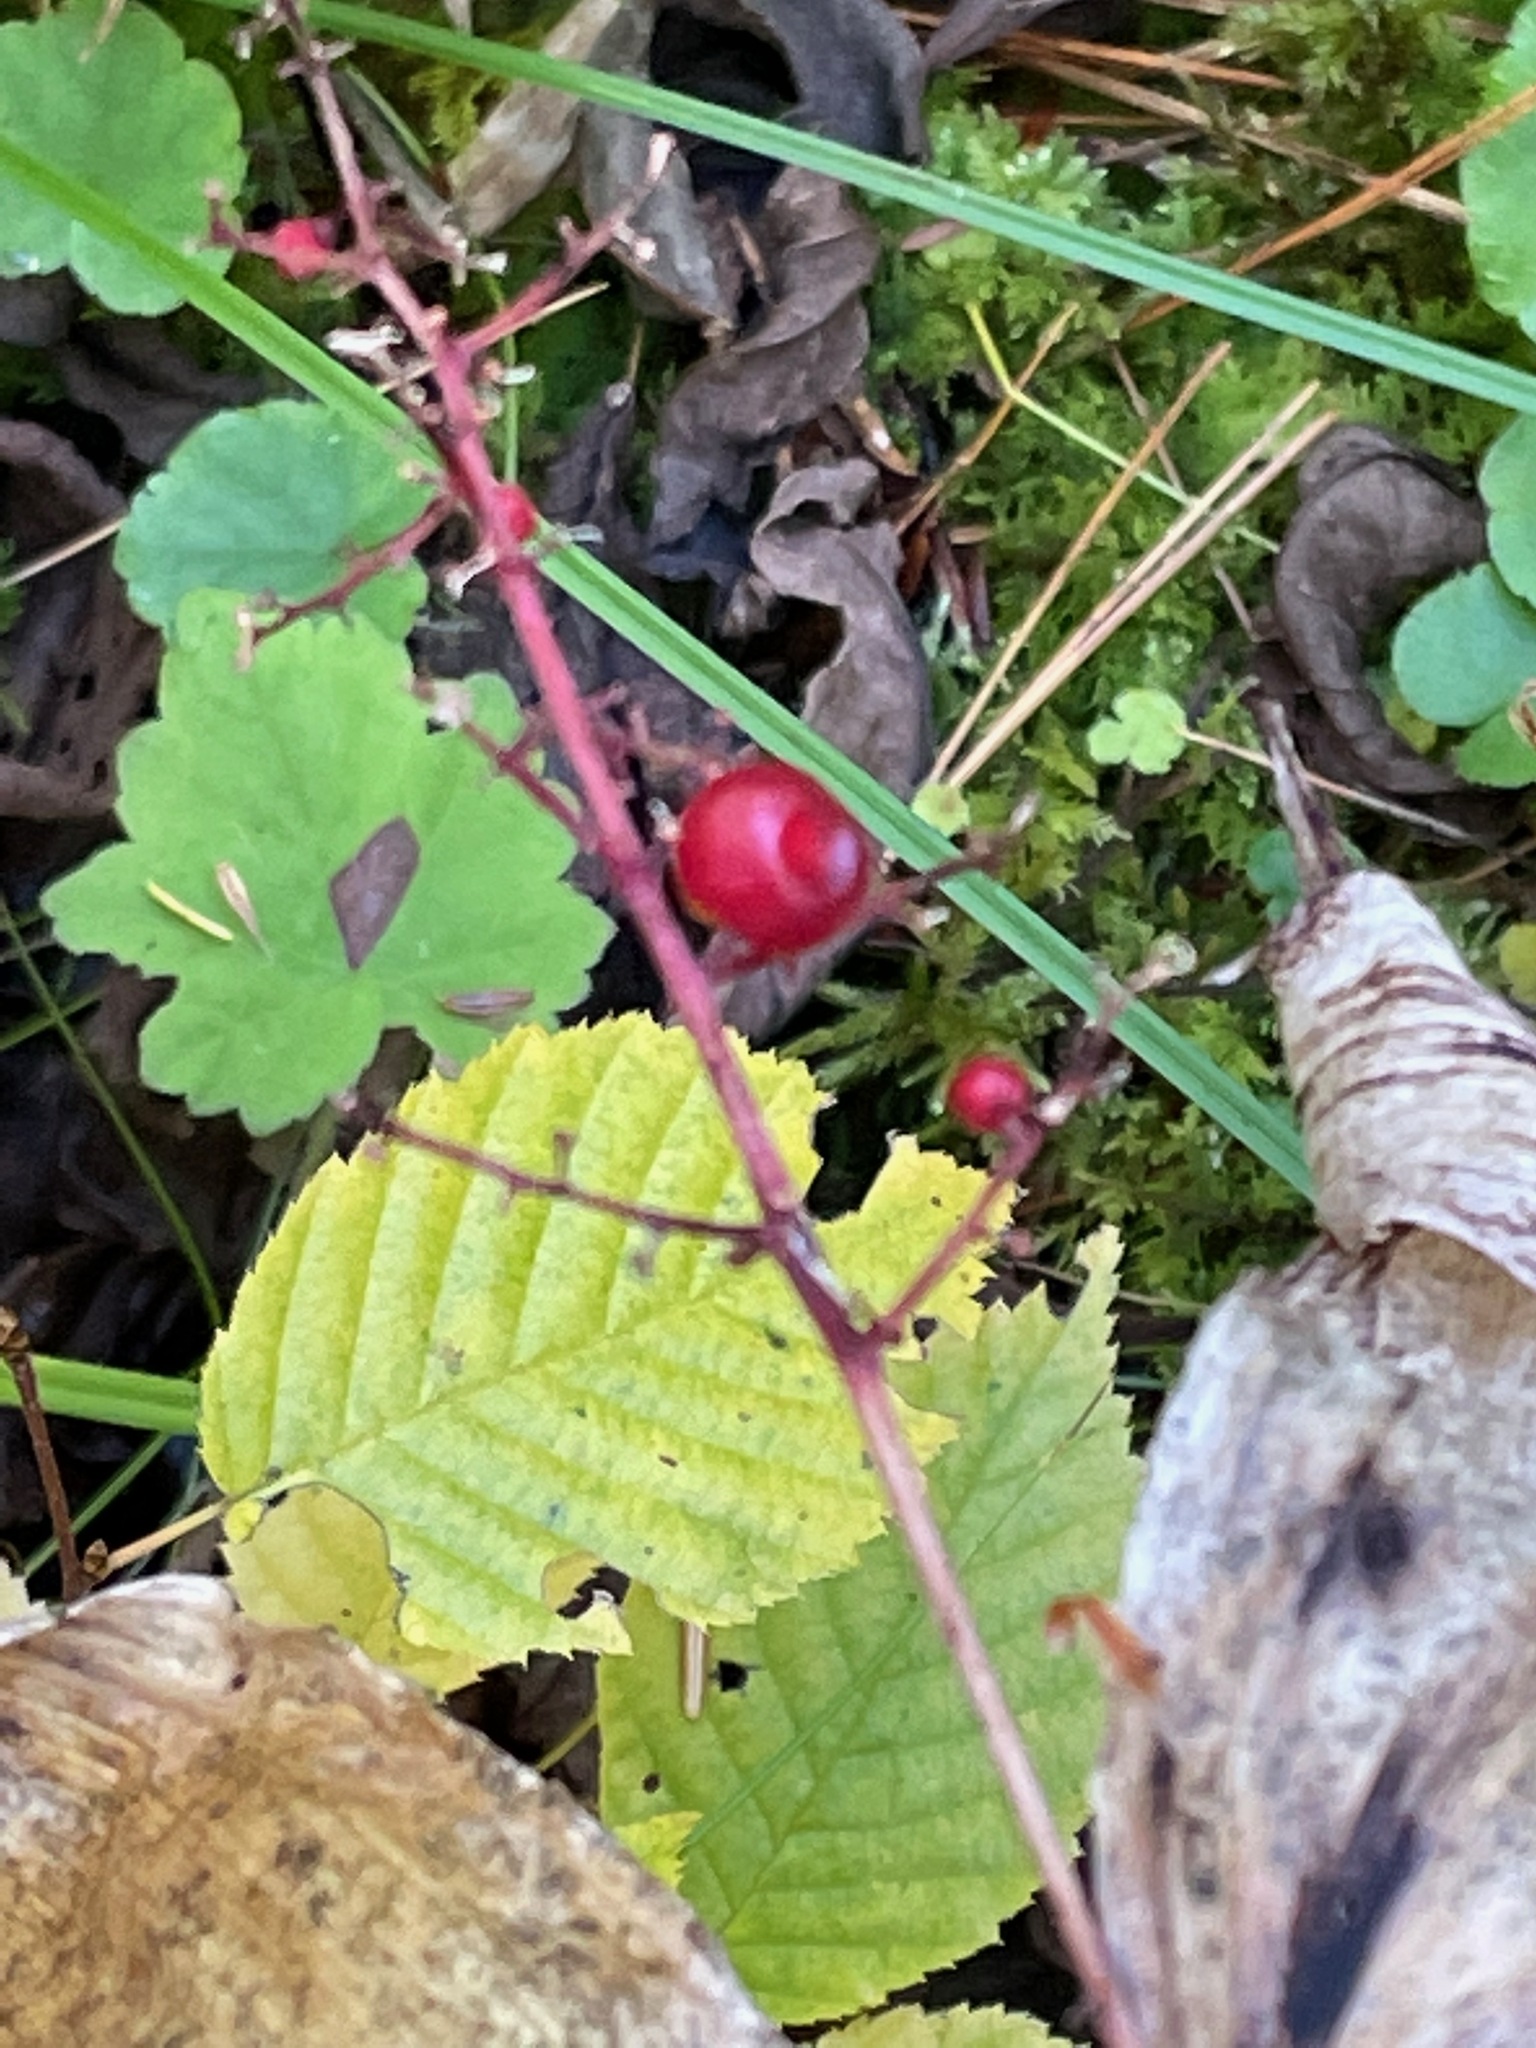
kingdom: Plantae
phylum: Tracheophyta
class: Liliopsida
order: Asparagales
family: Asparagaceae
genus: Maianthemum
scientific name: Maianthemum racemosum
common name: False spikenard
